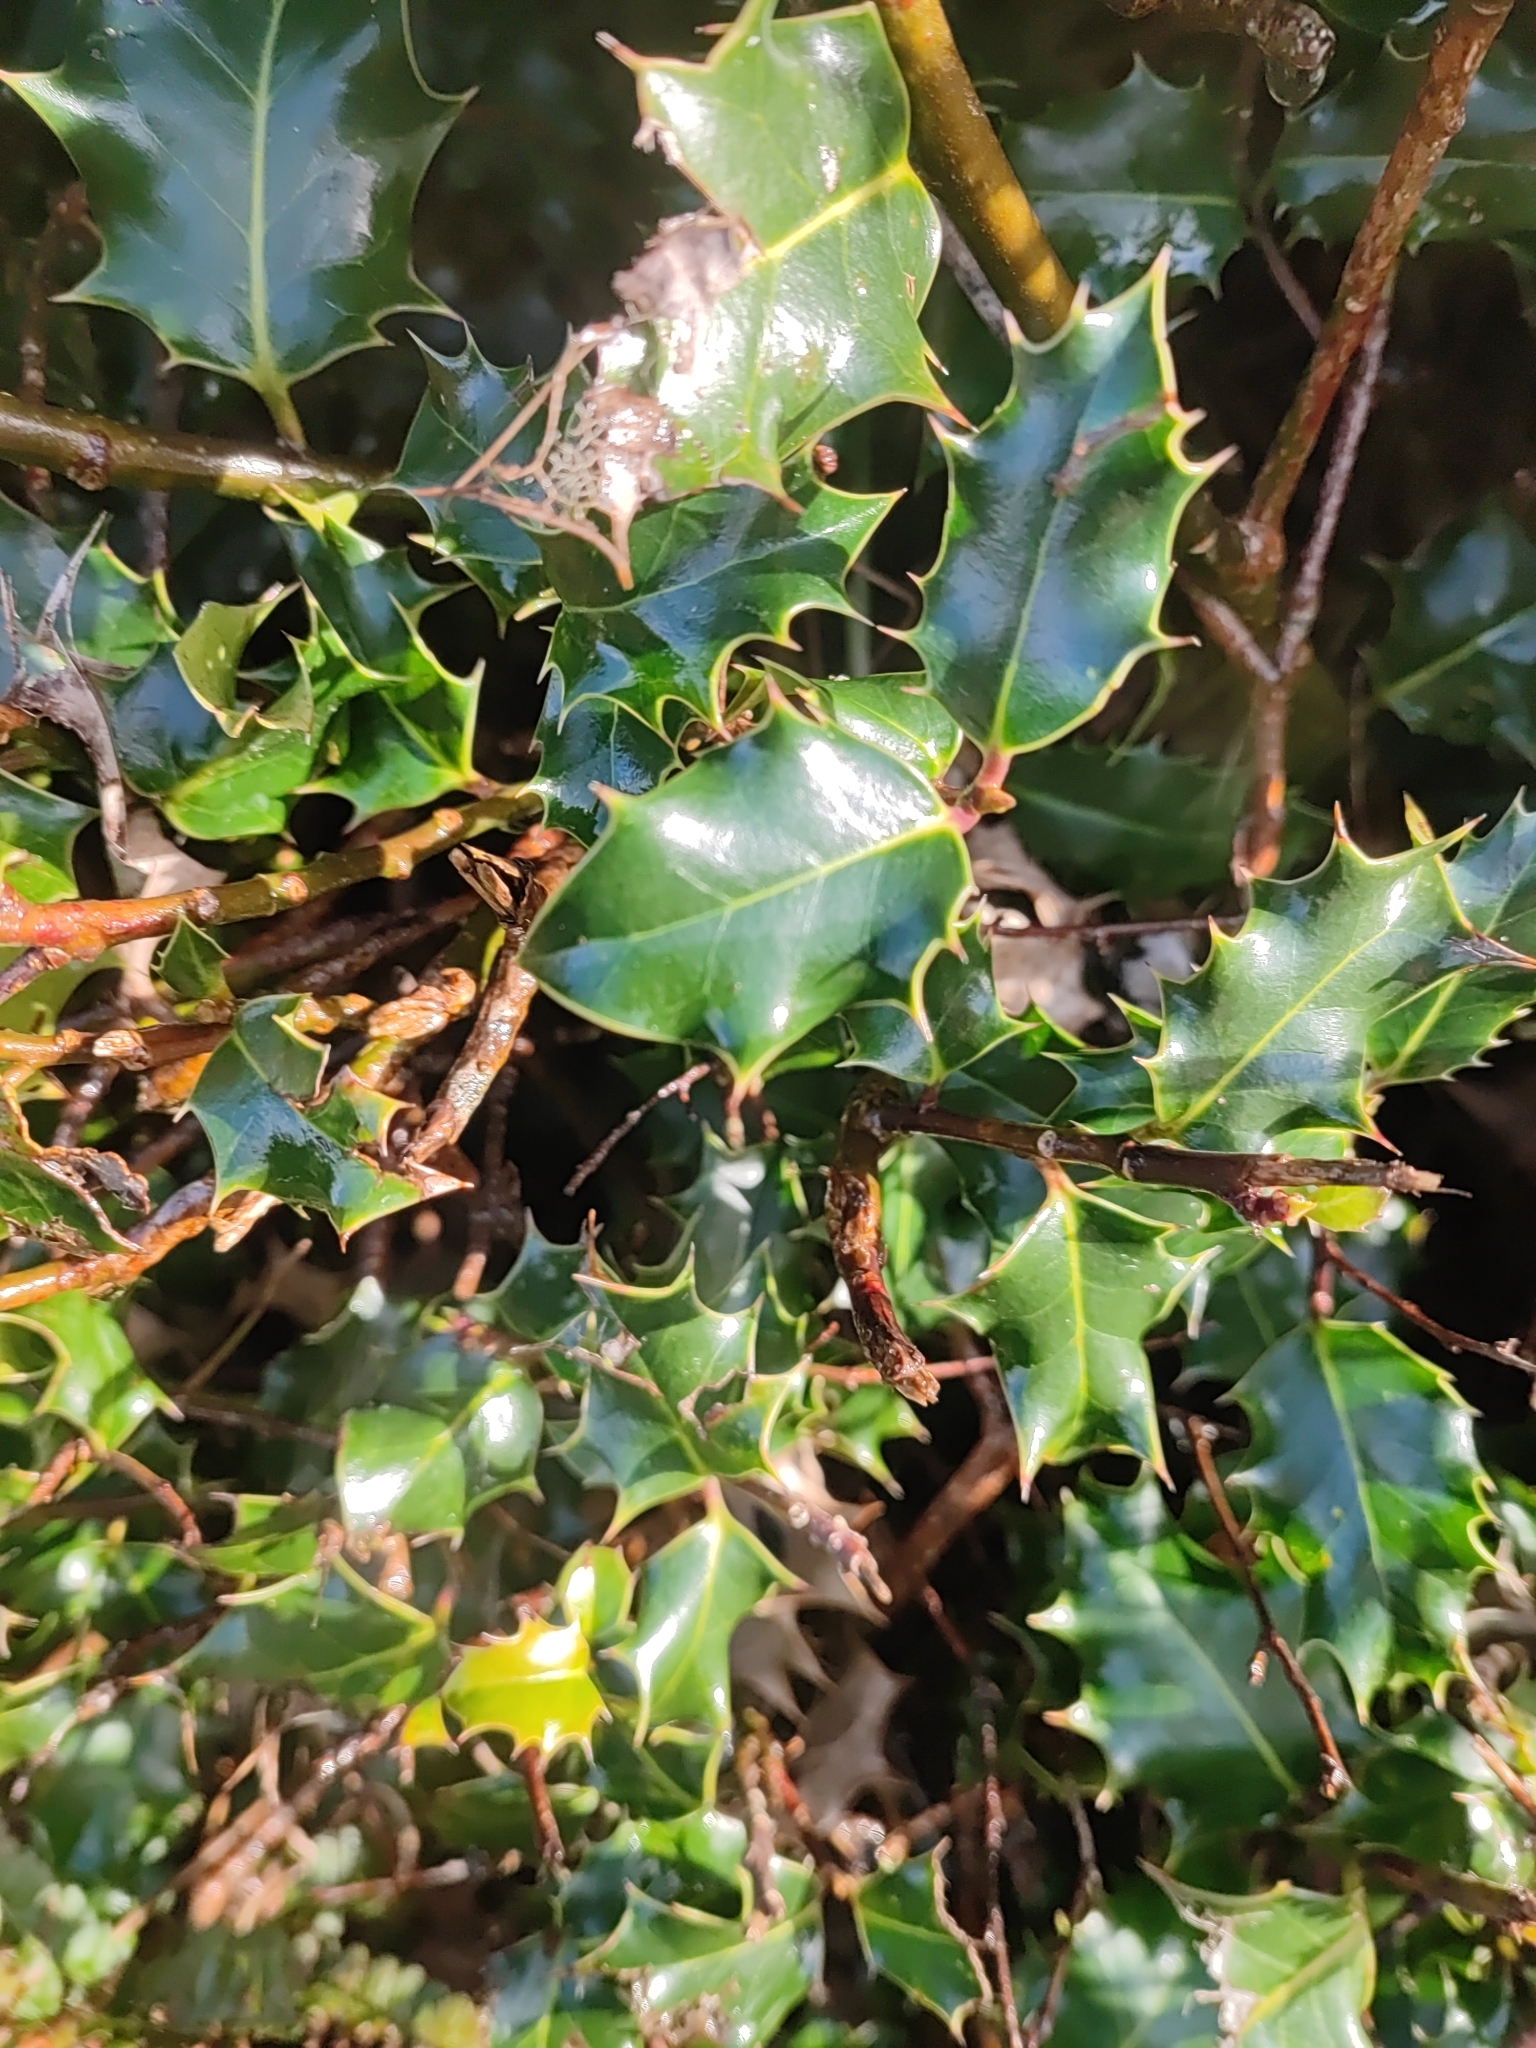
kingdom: Plantae
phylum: Tracheophyta
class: Magnoliopsida
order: Aquifoliales
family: Aquifoliaceae
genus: Ilex
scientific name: Ilex aquifolium
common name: English holly
